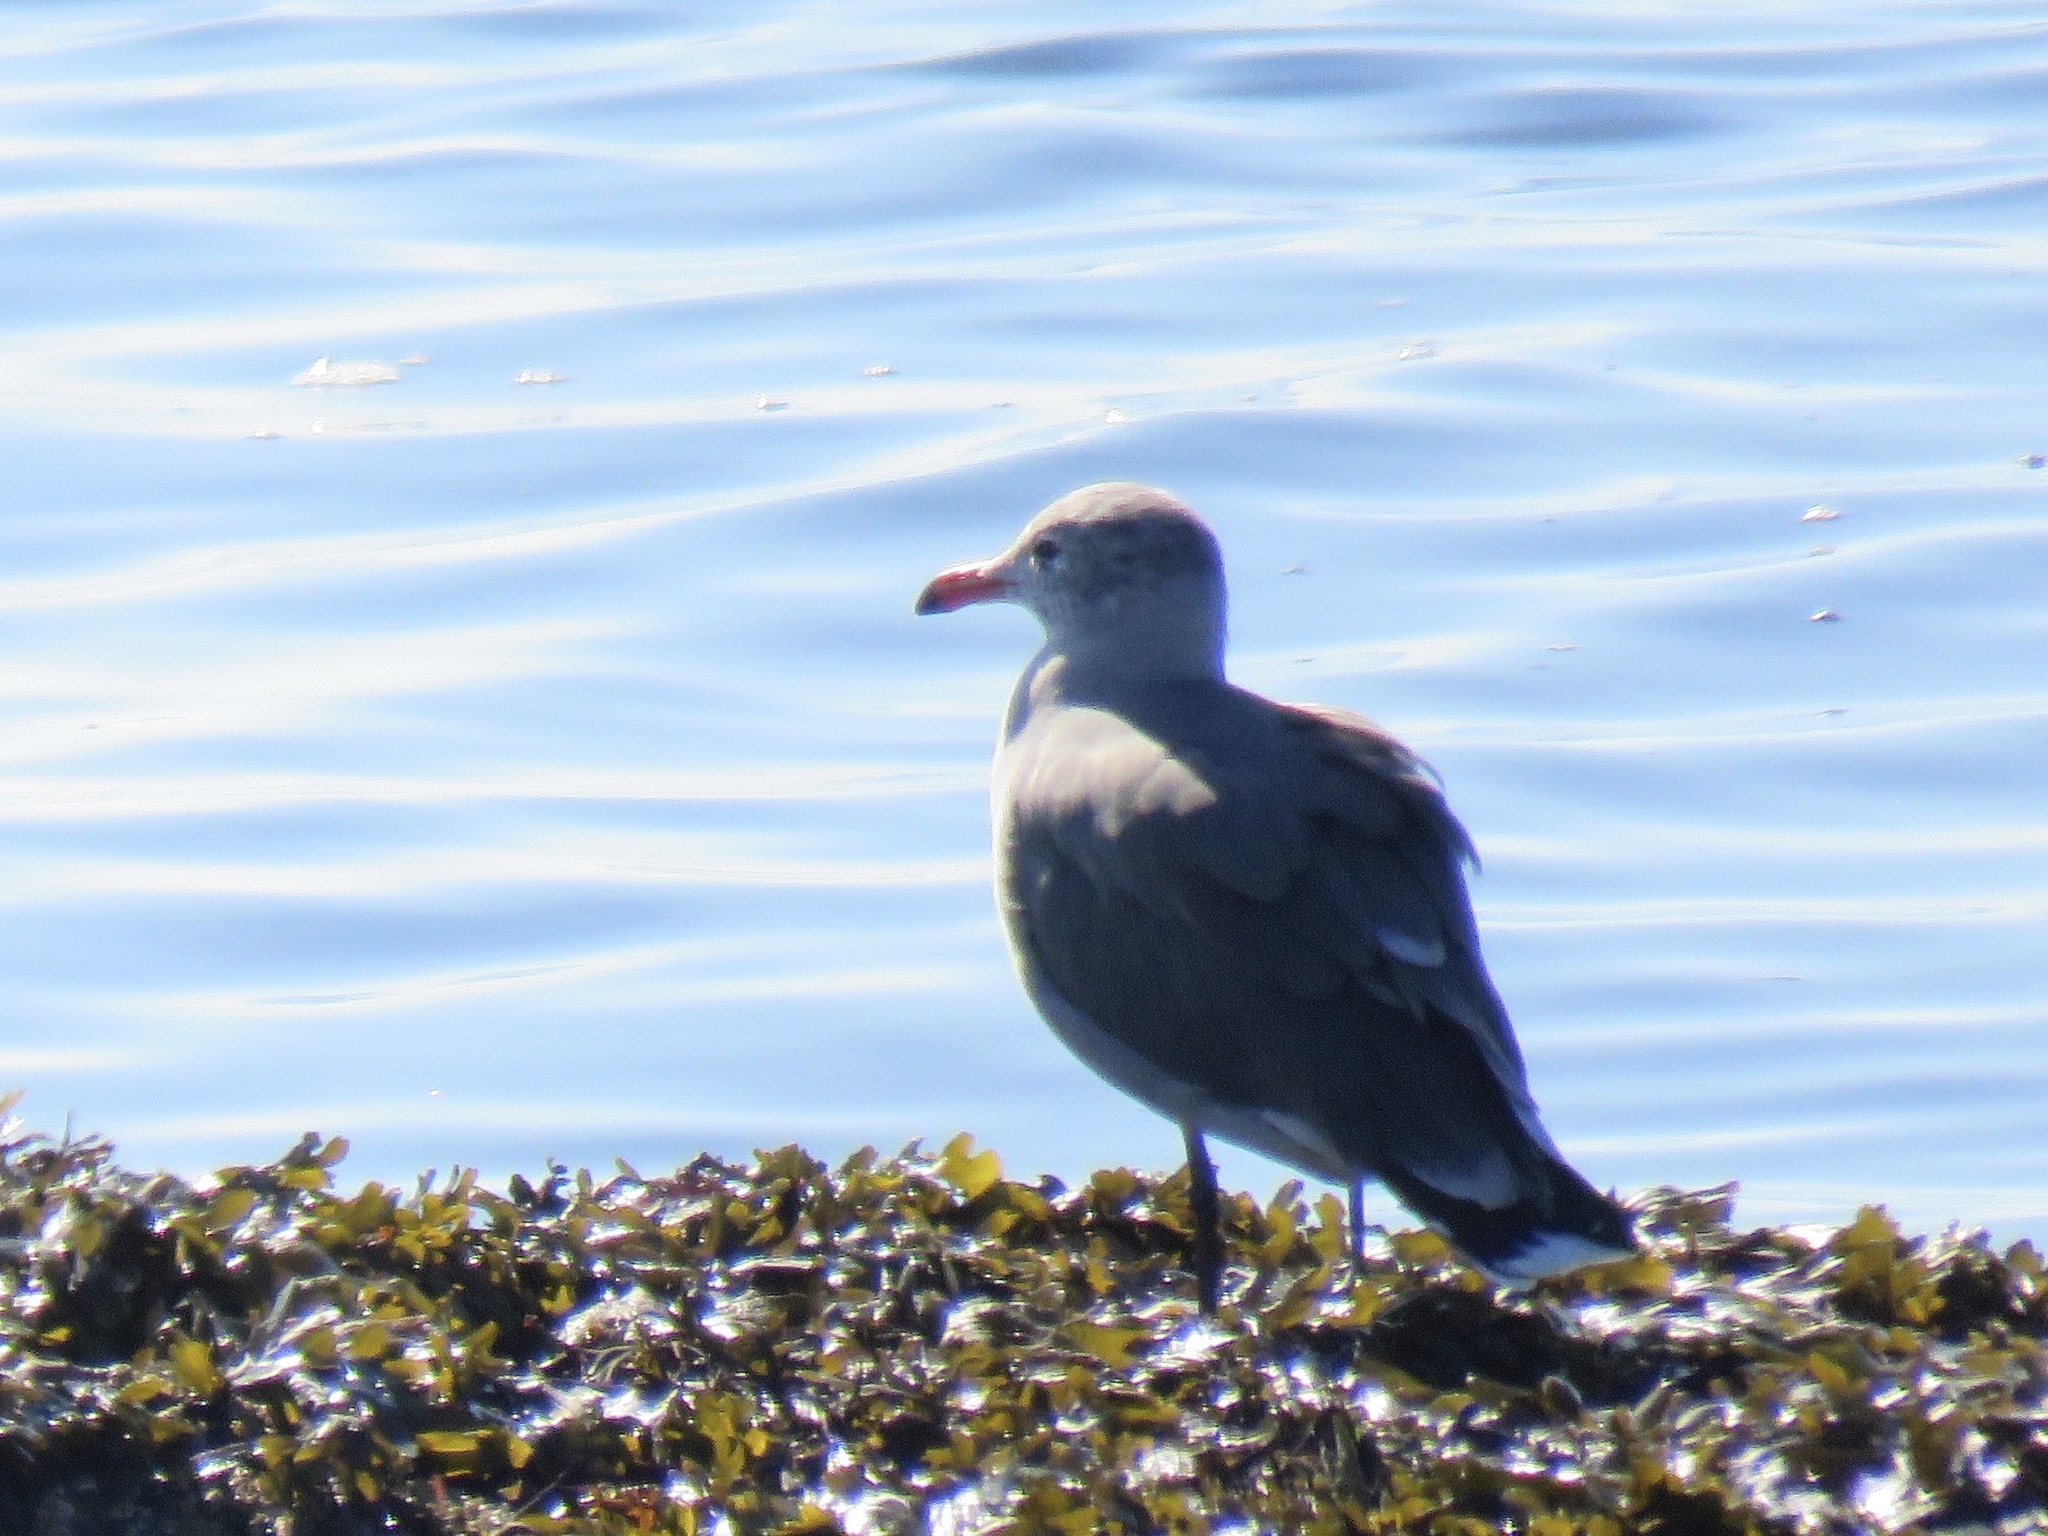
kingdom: Animalia
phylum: Chordata
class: Aves
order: Charadriiformes
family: Laridae
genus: Larus
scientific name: Larus heermanni
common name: Heermann's gull
